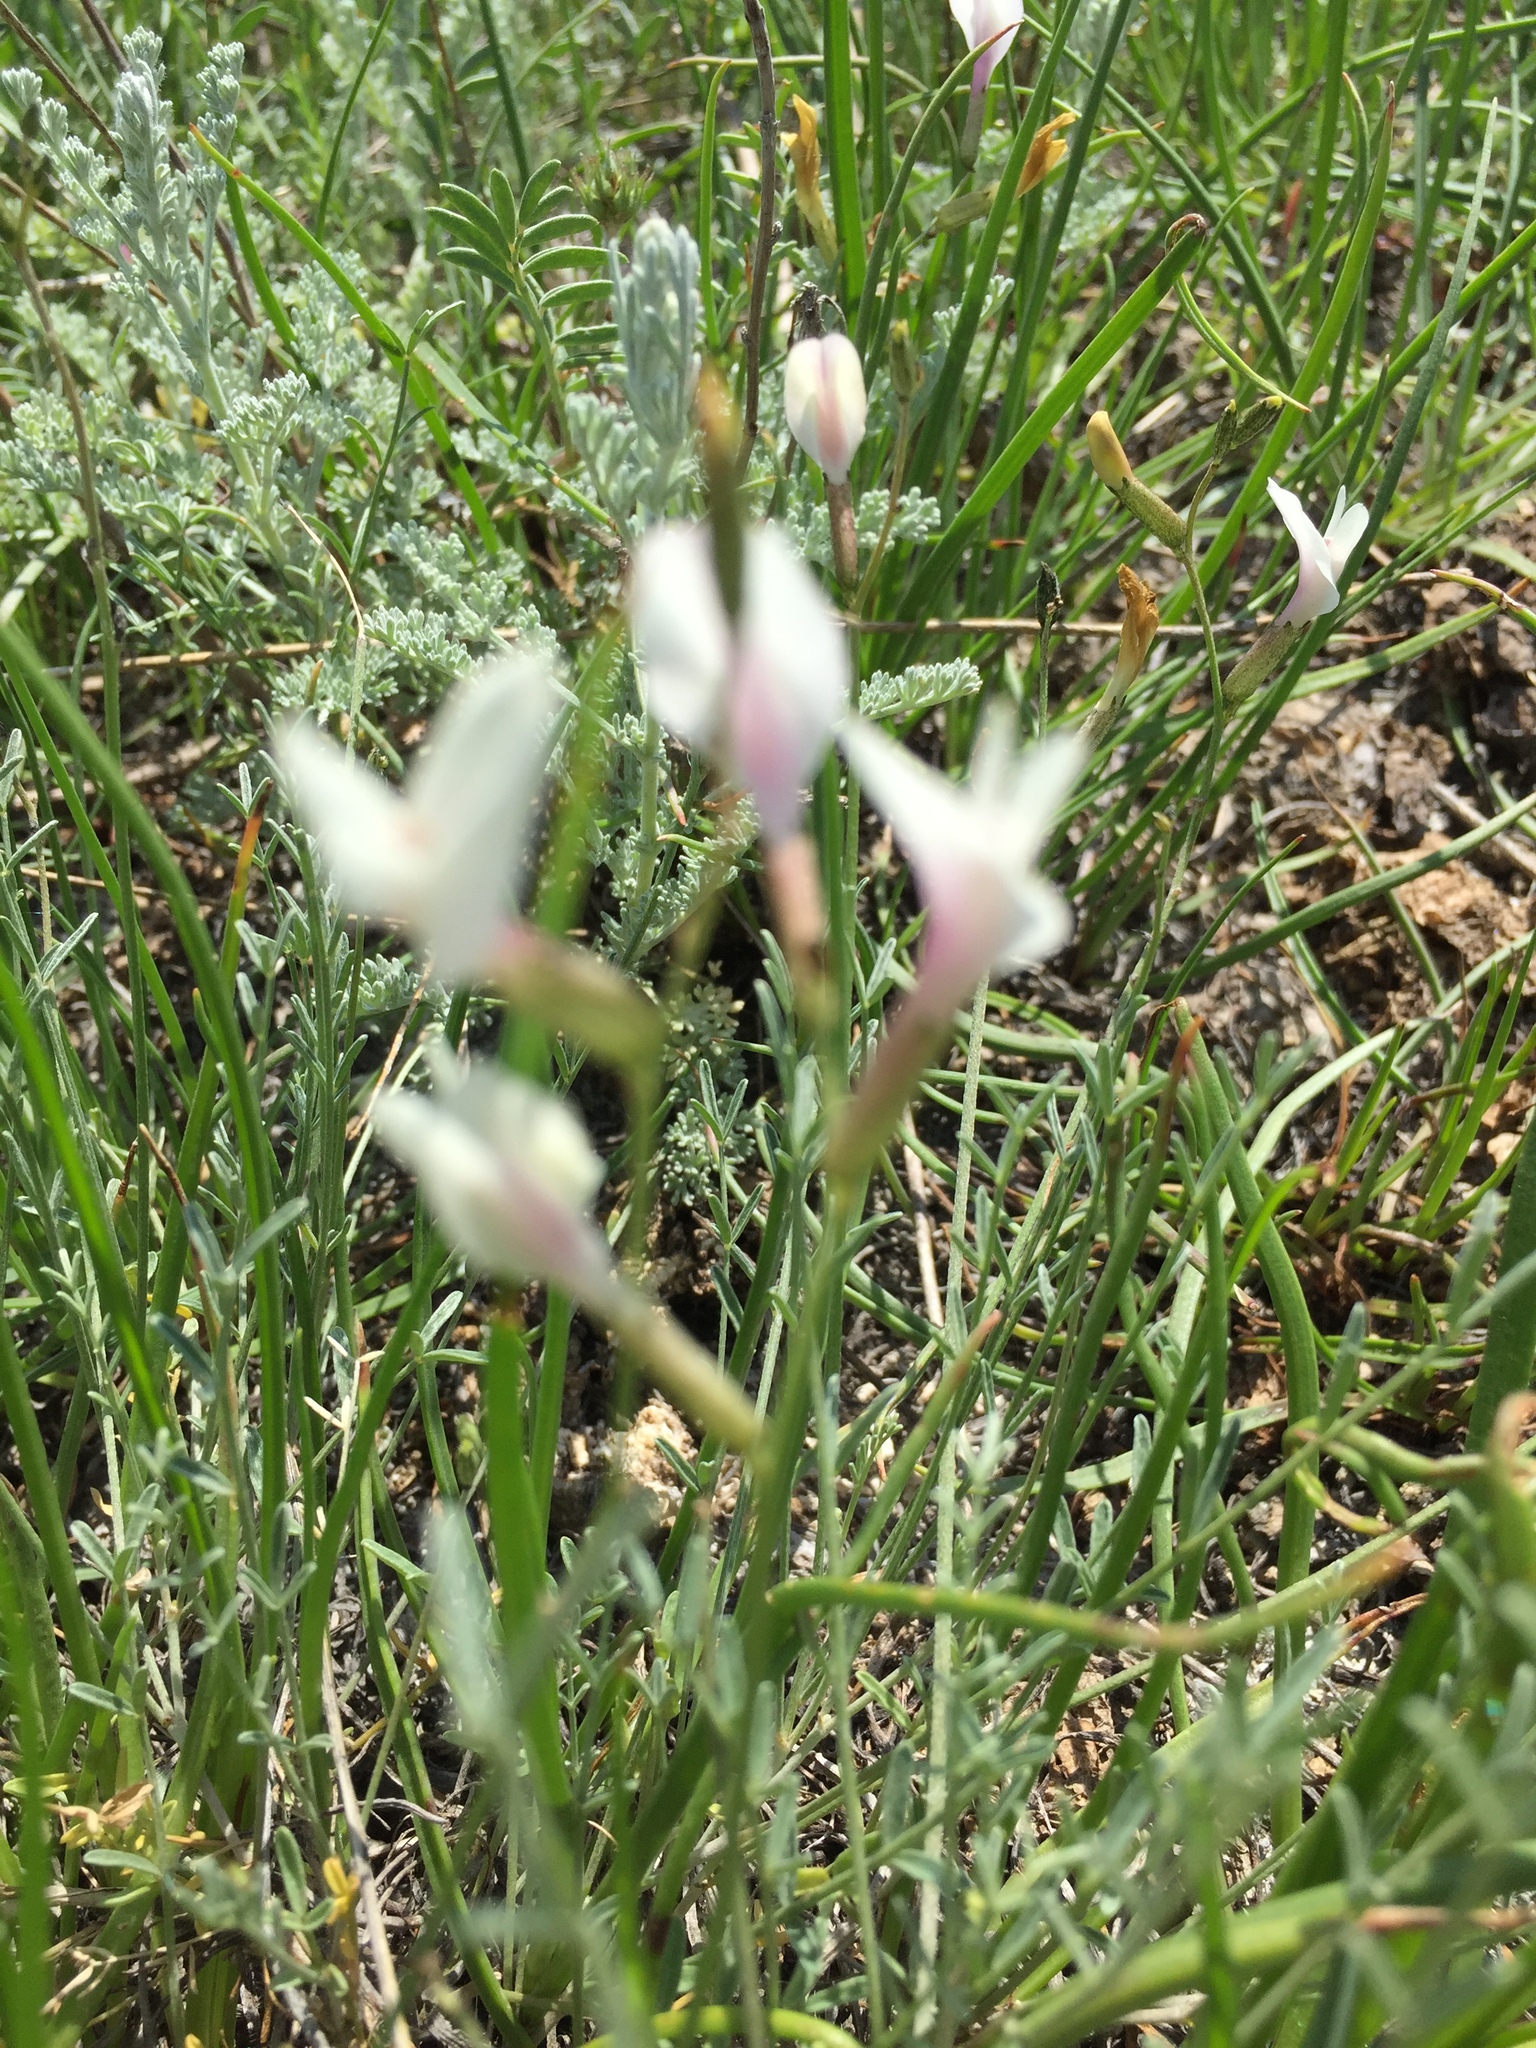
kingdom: Plantae
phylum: Tracheophyta
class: Magnoliopsida
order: Fabales
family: Fabaceae
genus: Astragalus
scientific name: Astragalus ucrainicus
